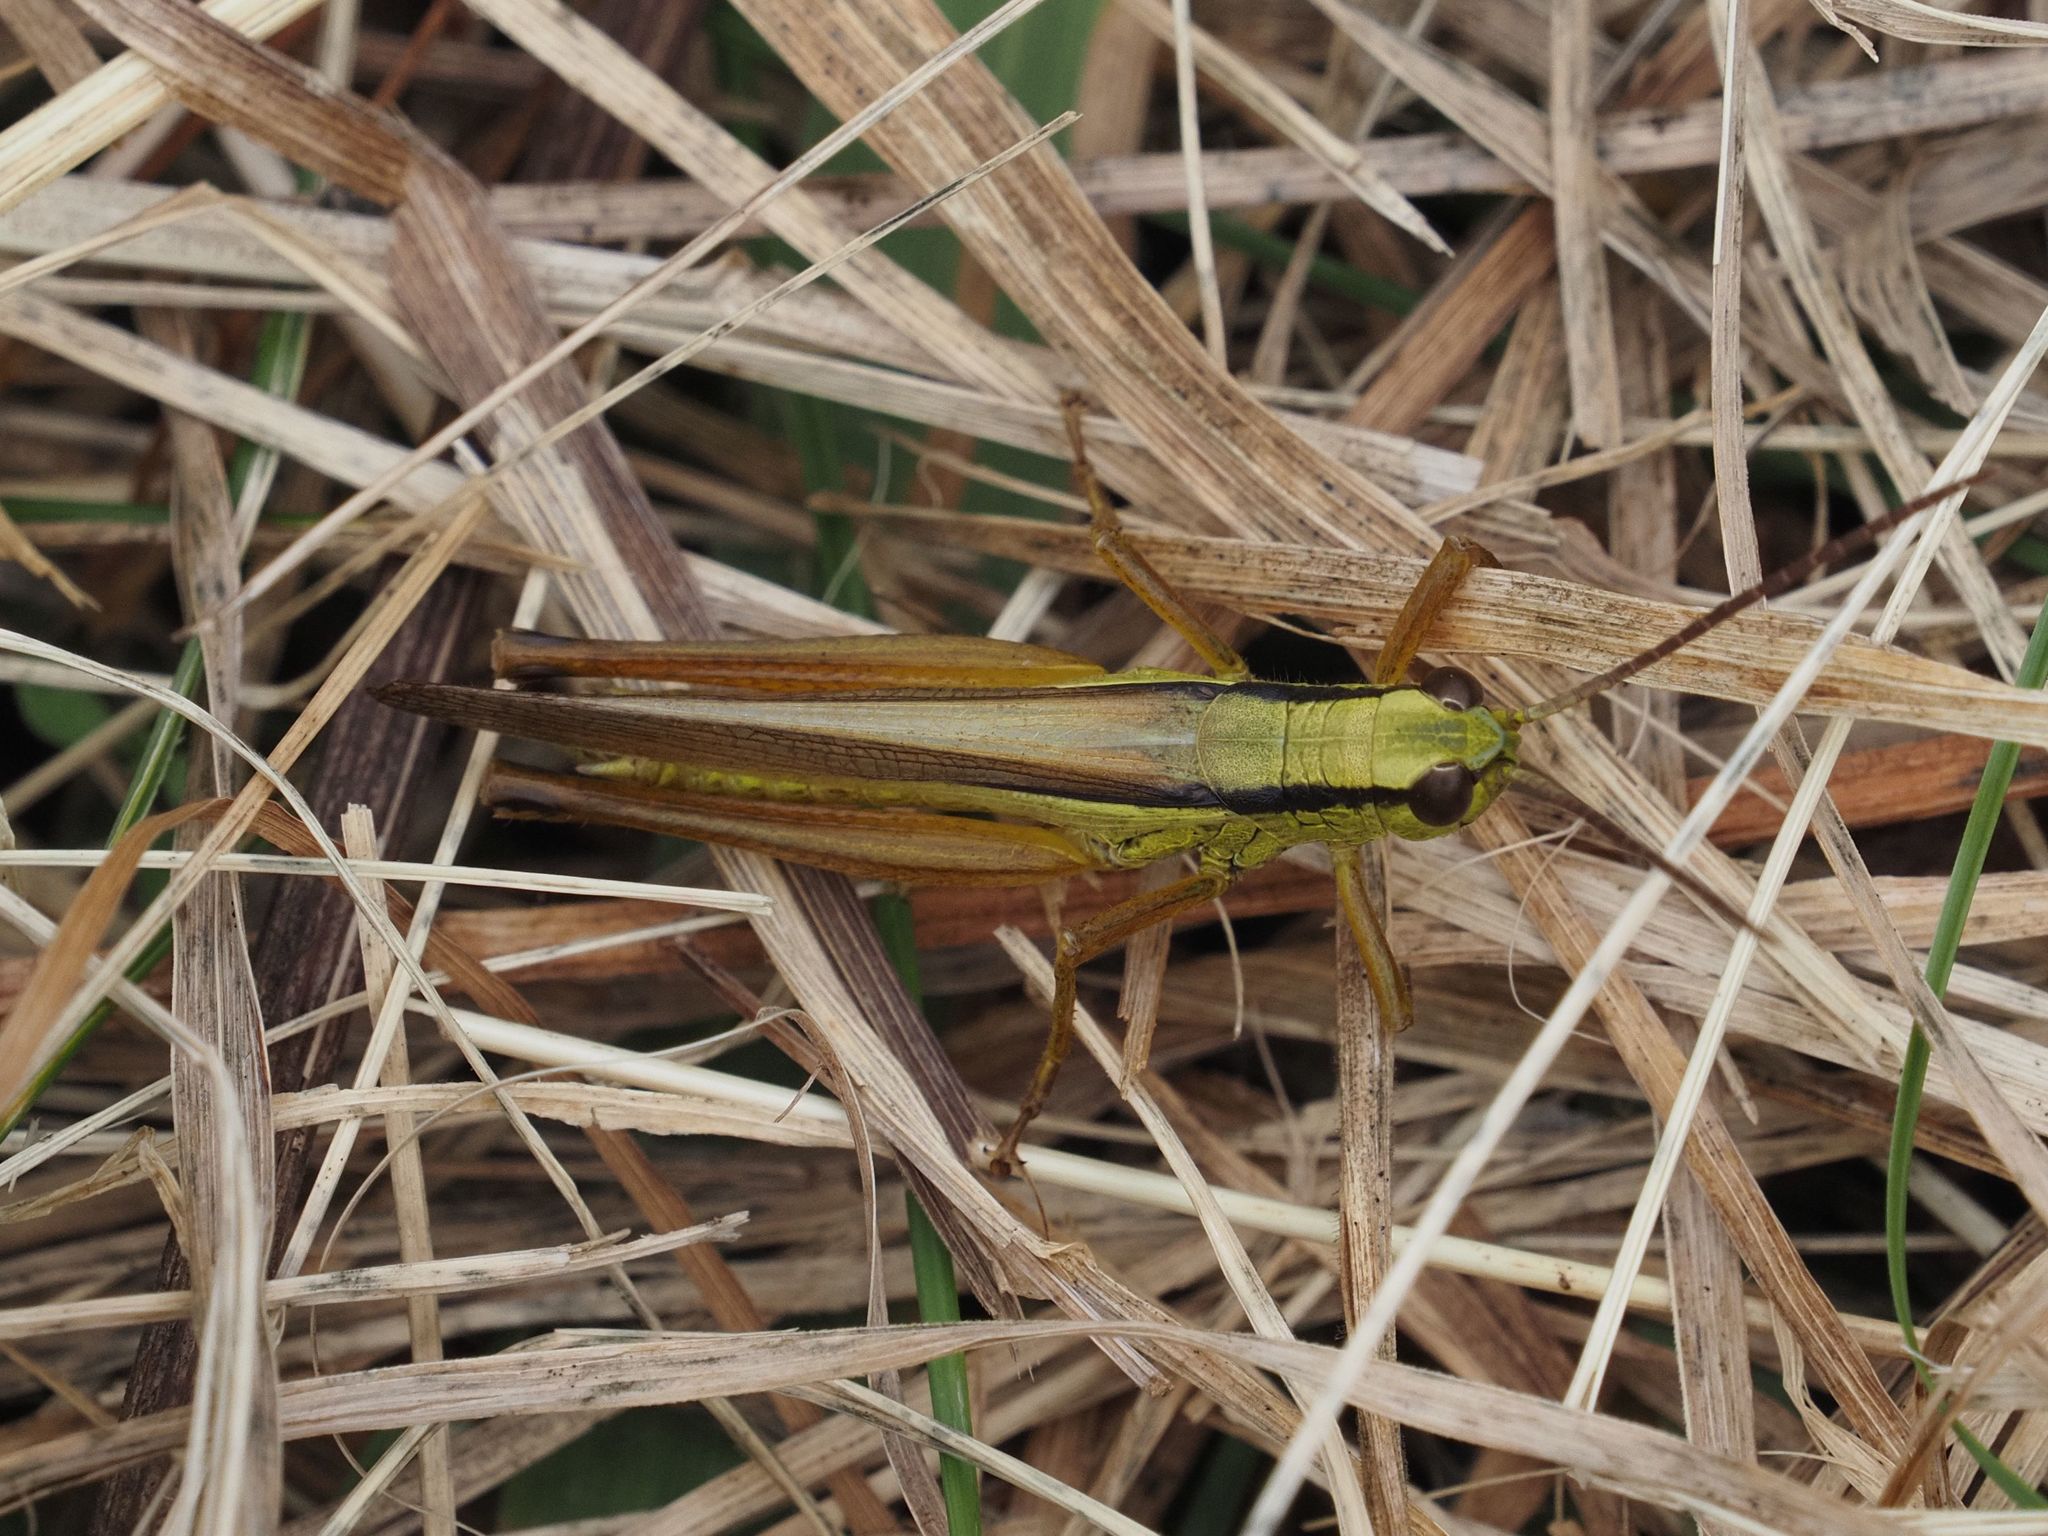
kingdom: Animalia
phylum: Arthropoda
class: Insecta
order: Orthoptera
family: Acrididae
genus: Mecostethus
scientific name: Mecostethus parapleurus
